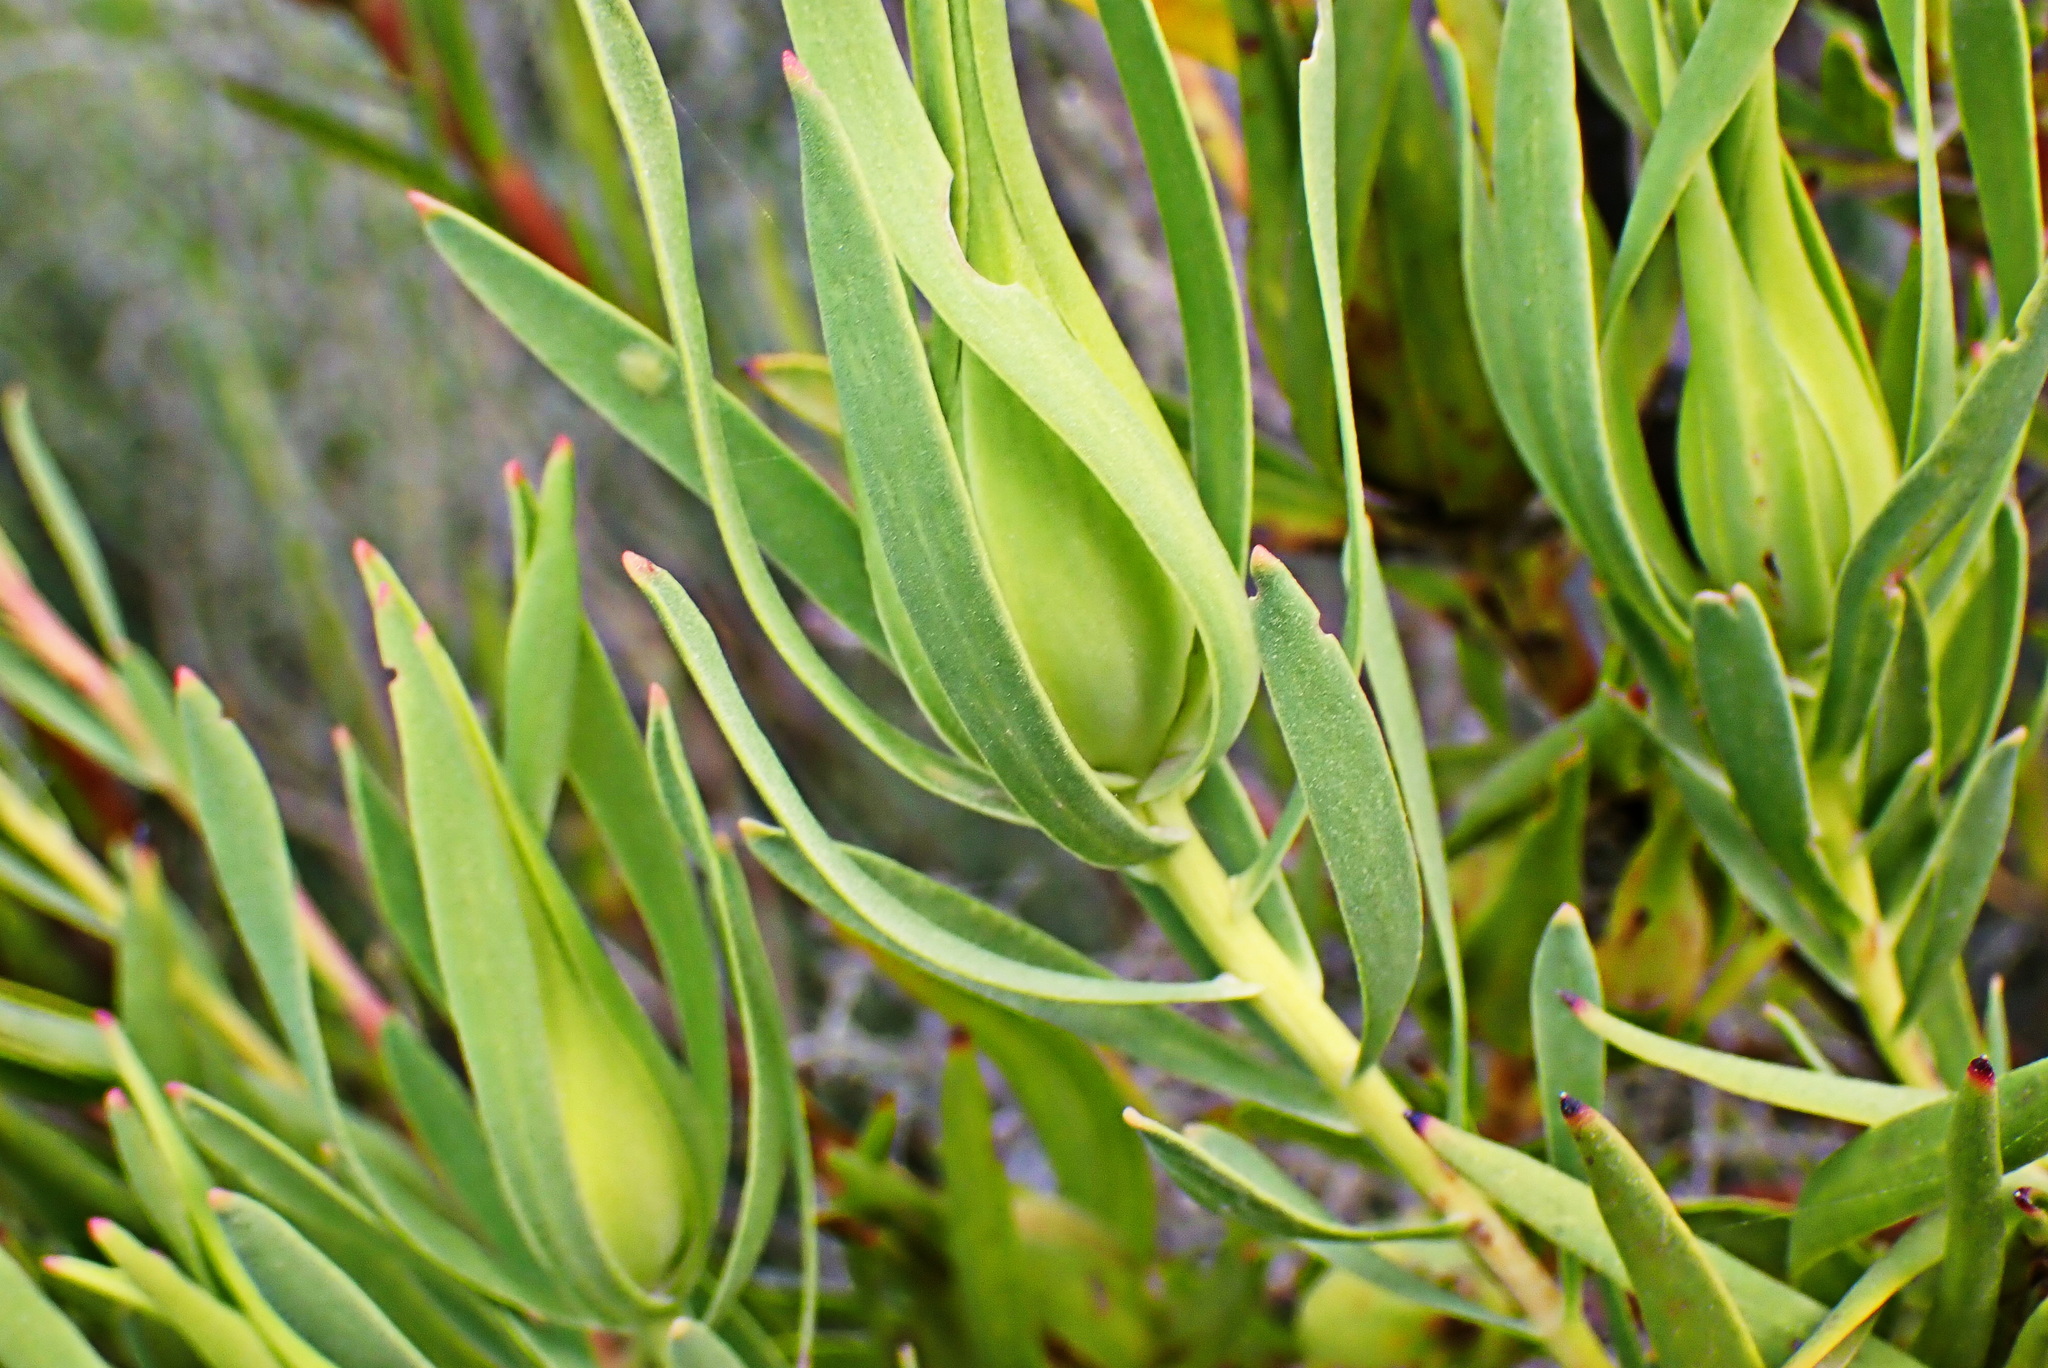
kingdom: Plantae
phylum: Tracheophyta
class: Magnoliopsida
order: Proteales
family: Proteaceae
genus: Leucadendron
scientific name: Leucadendron salignum
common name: Common sunshine conebush
